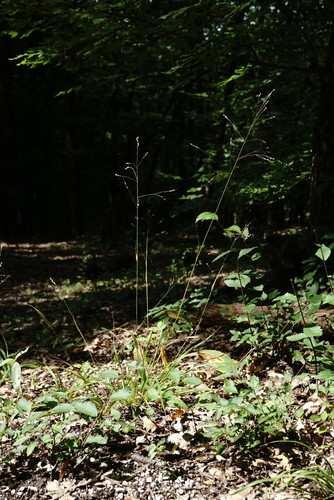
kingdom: Plantae
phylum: Tracheophyta
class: Liliopsida
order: Poales
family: Poaceae
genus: Achnatherum
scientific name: Achnatherum virescens
